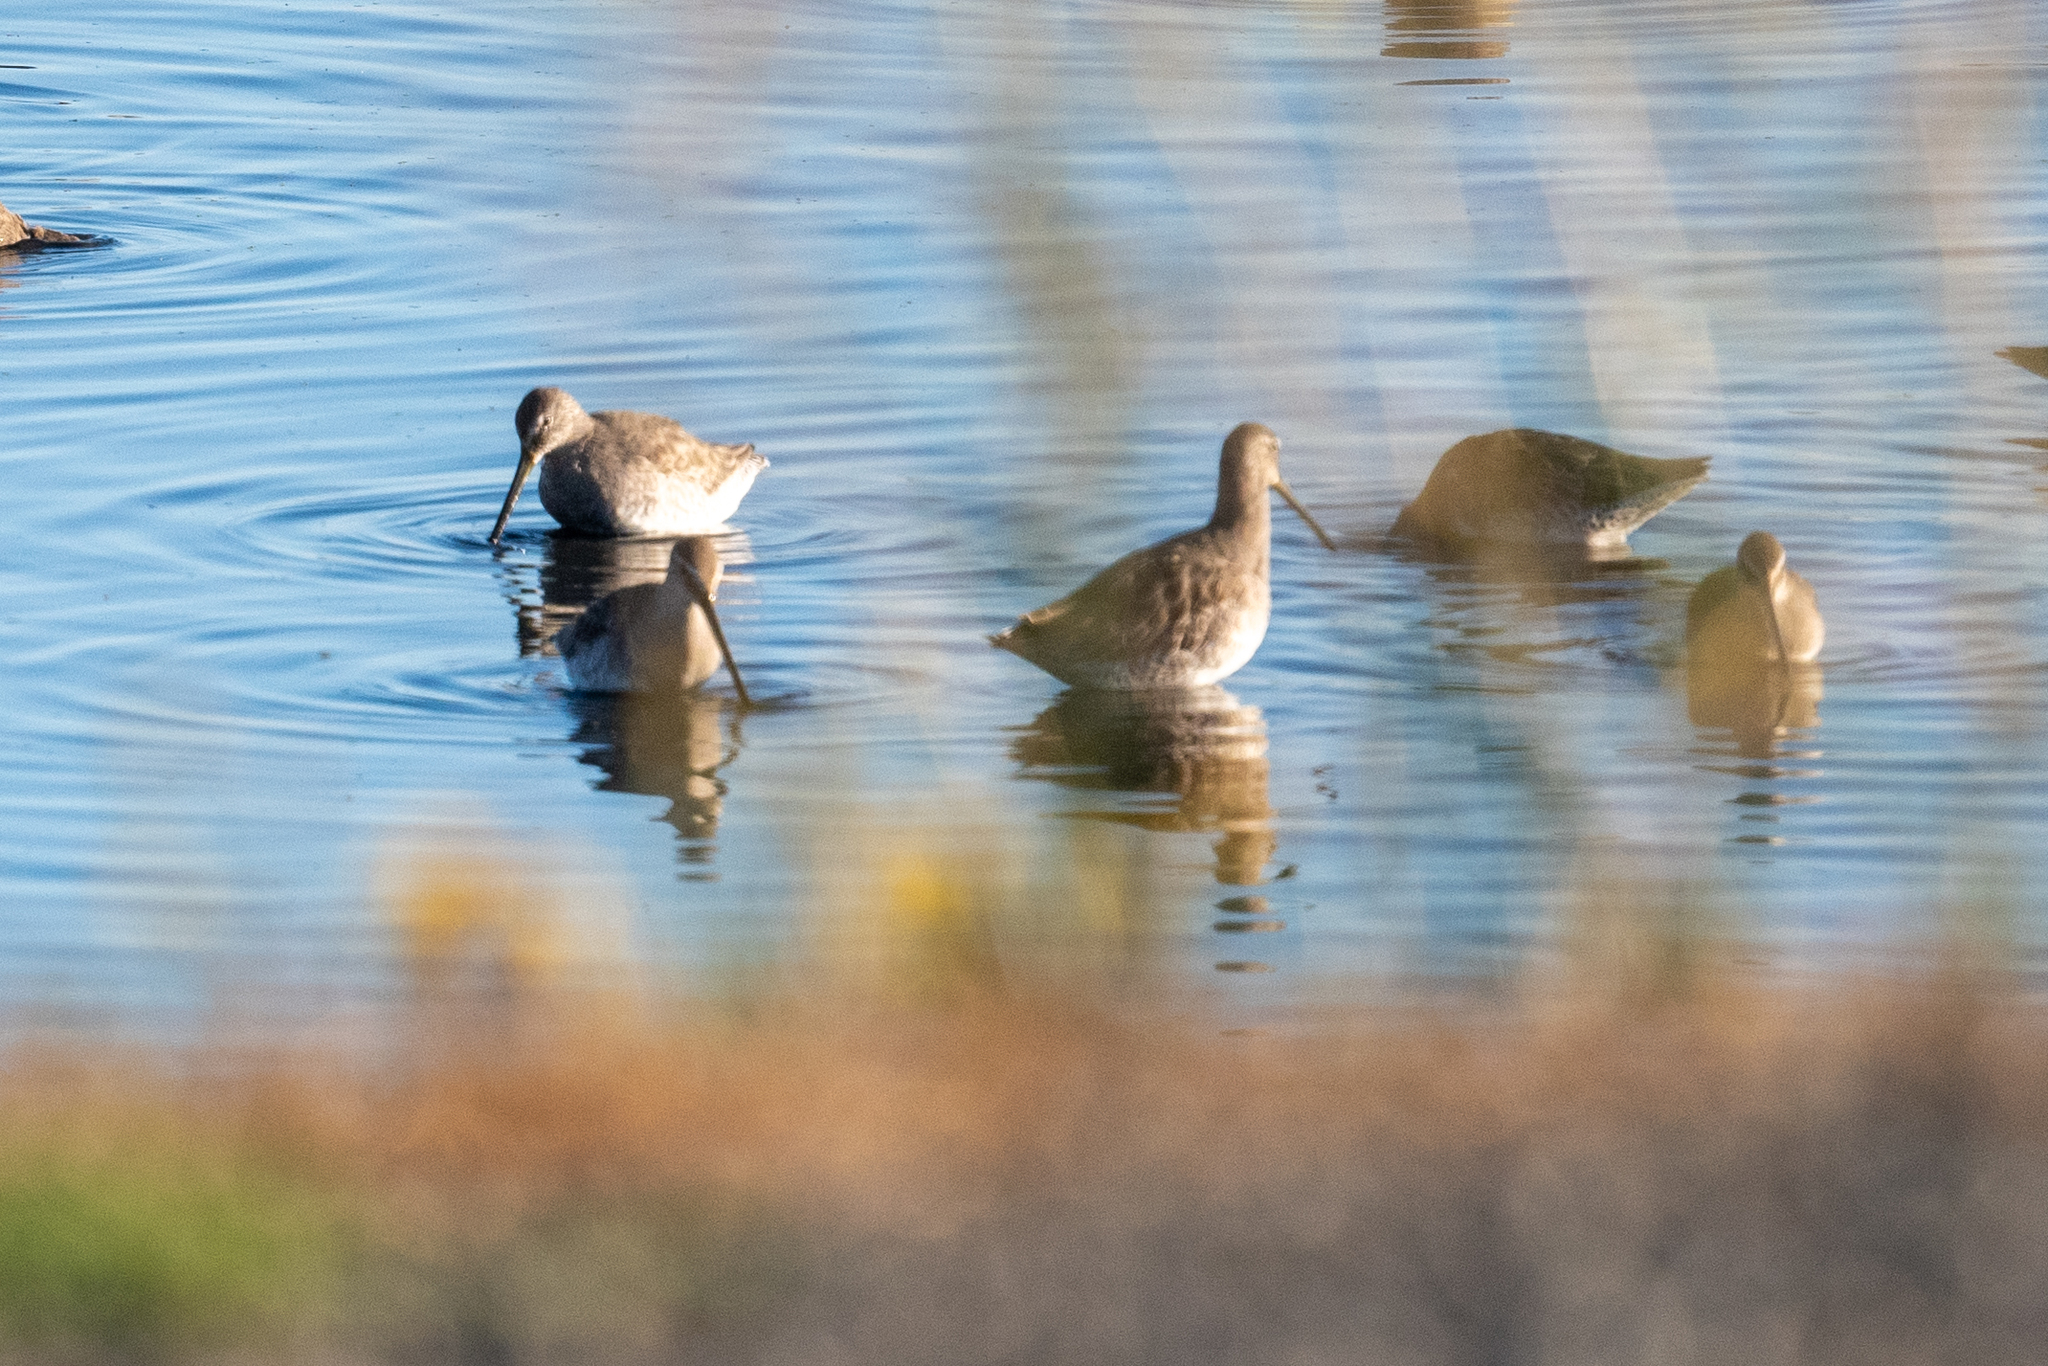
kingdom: Animalia
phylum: Chordata
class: Aves
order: Charadriiformes
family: Scolopacidae
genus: Limnodromus
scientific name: Limnodromus scolopaceus
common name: Long-billed dowitcher
